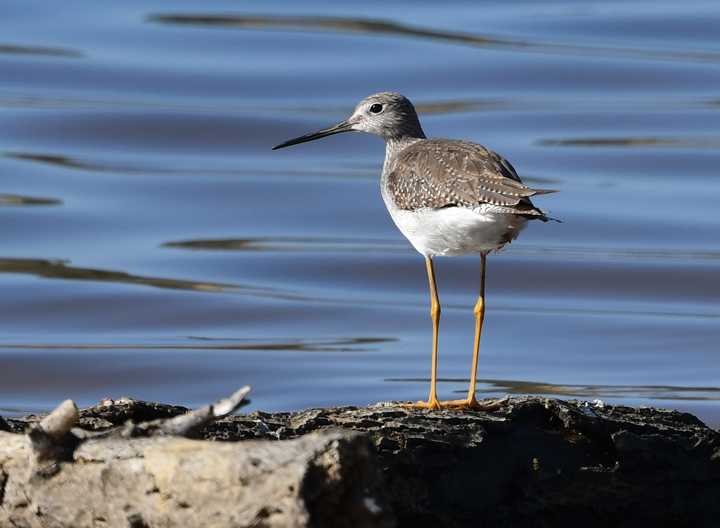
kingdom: Animalia
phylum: Chordata
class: Aves
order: Charadriiformes
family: Scolopacidae
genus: Tringa
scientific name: Tringa melanoleuca
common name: Greater yellowlegs
